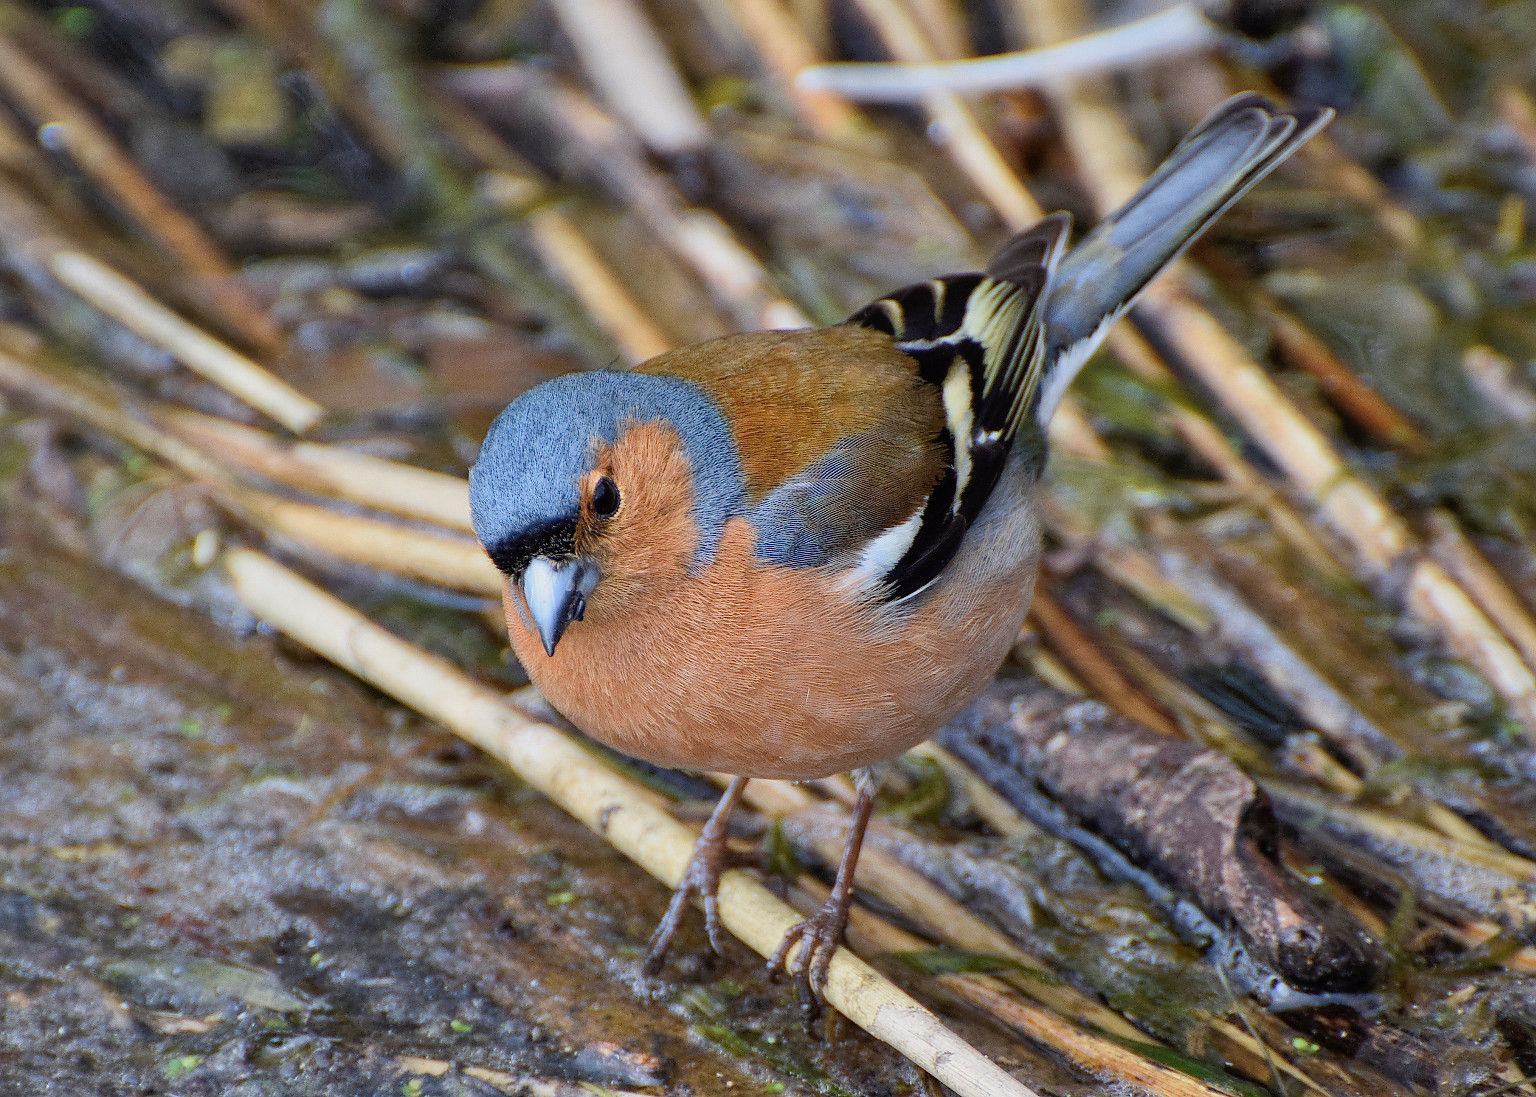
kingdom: Animalia
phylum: Chordata
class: Aves
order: Passeriformes
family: Fringillidae
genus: Fringilla
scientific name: Fringilla coelebs
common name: Common chaffinch
